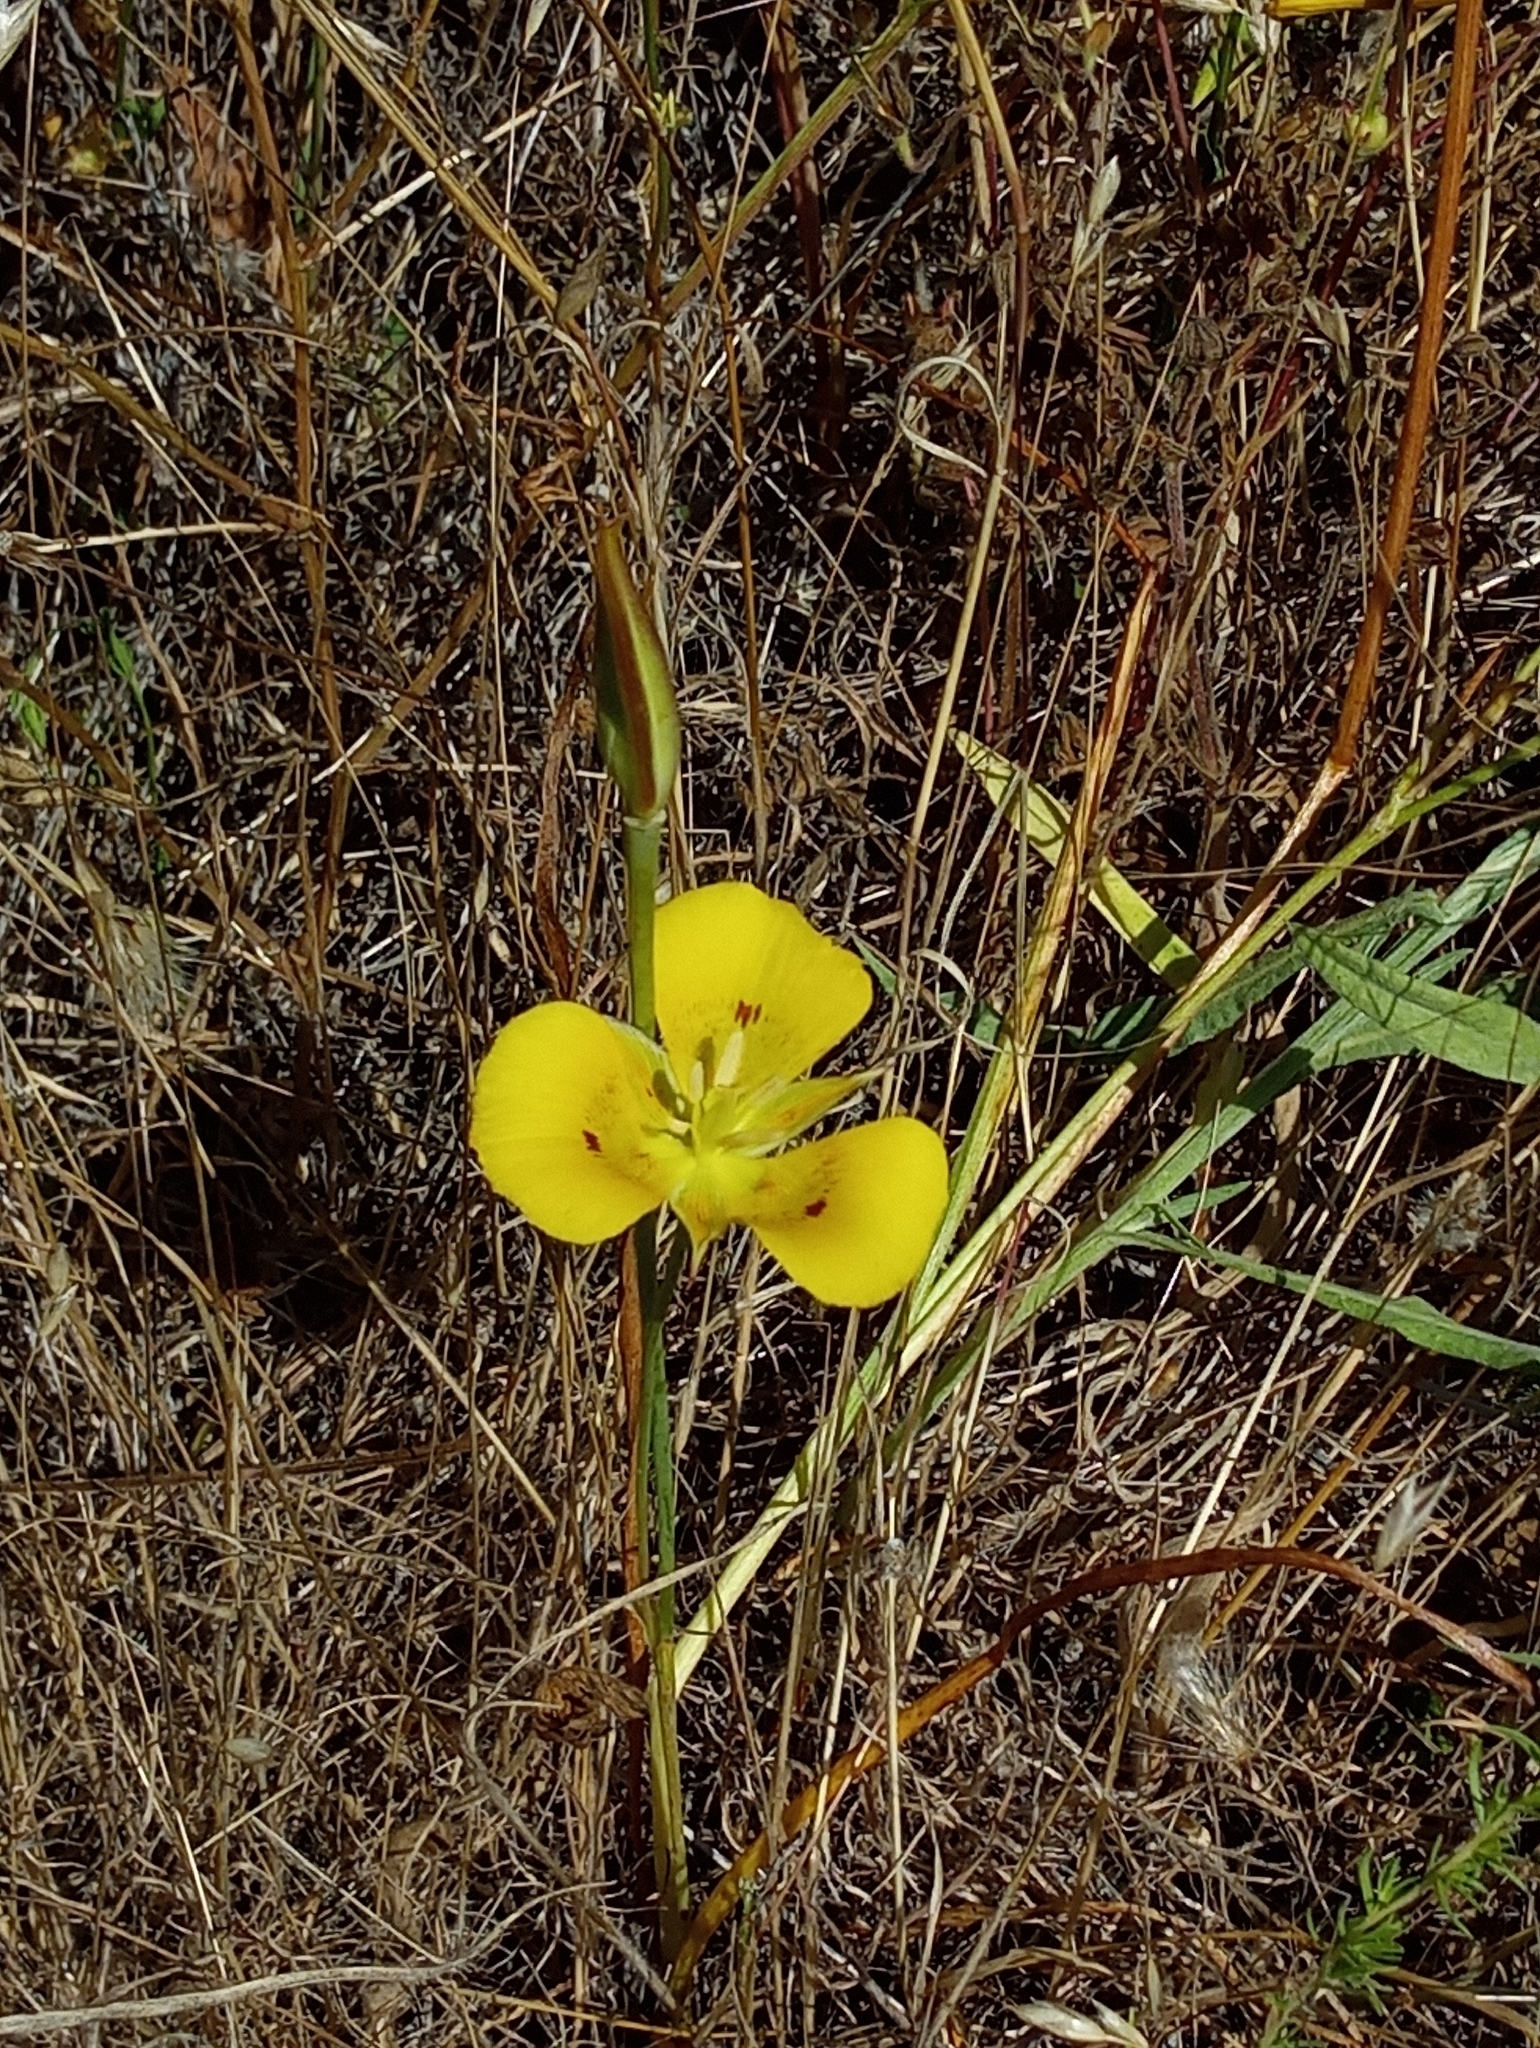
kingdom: Plantae
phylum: Tracheophyta
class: Liliopsida
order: Liliales
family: Liliaceae
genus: Calochortus
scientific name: Calochortus luteus
